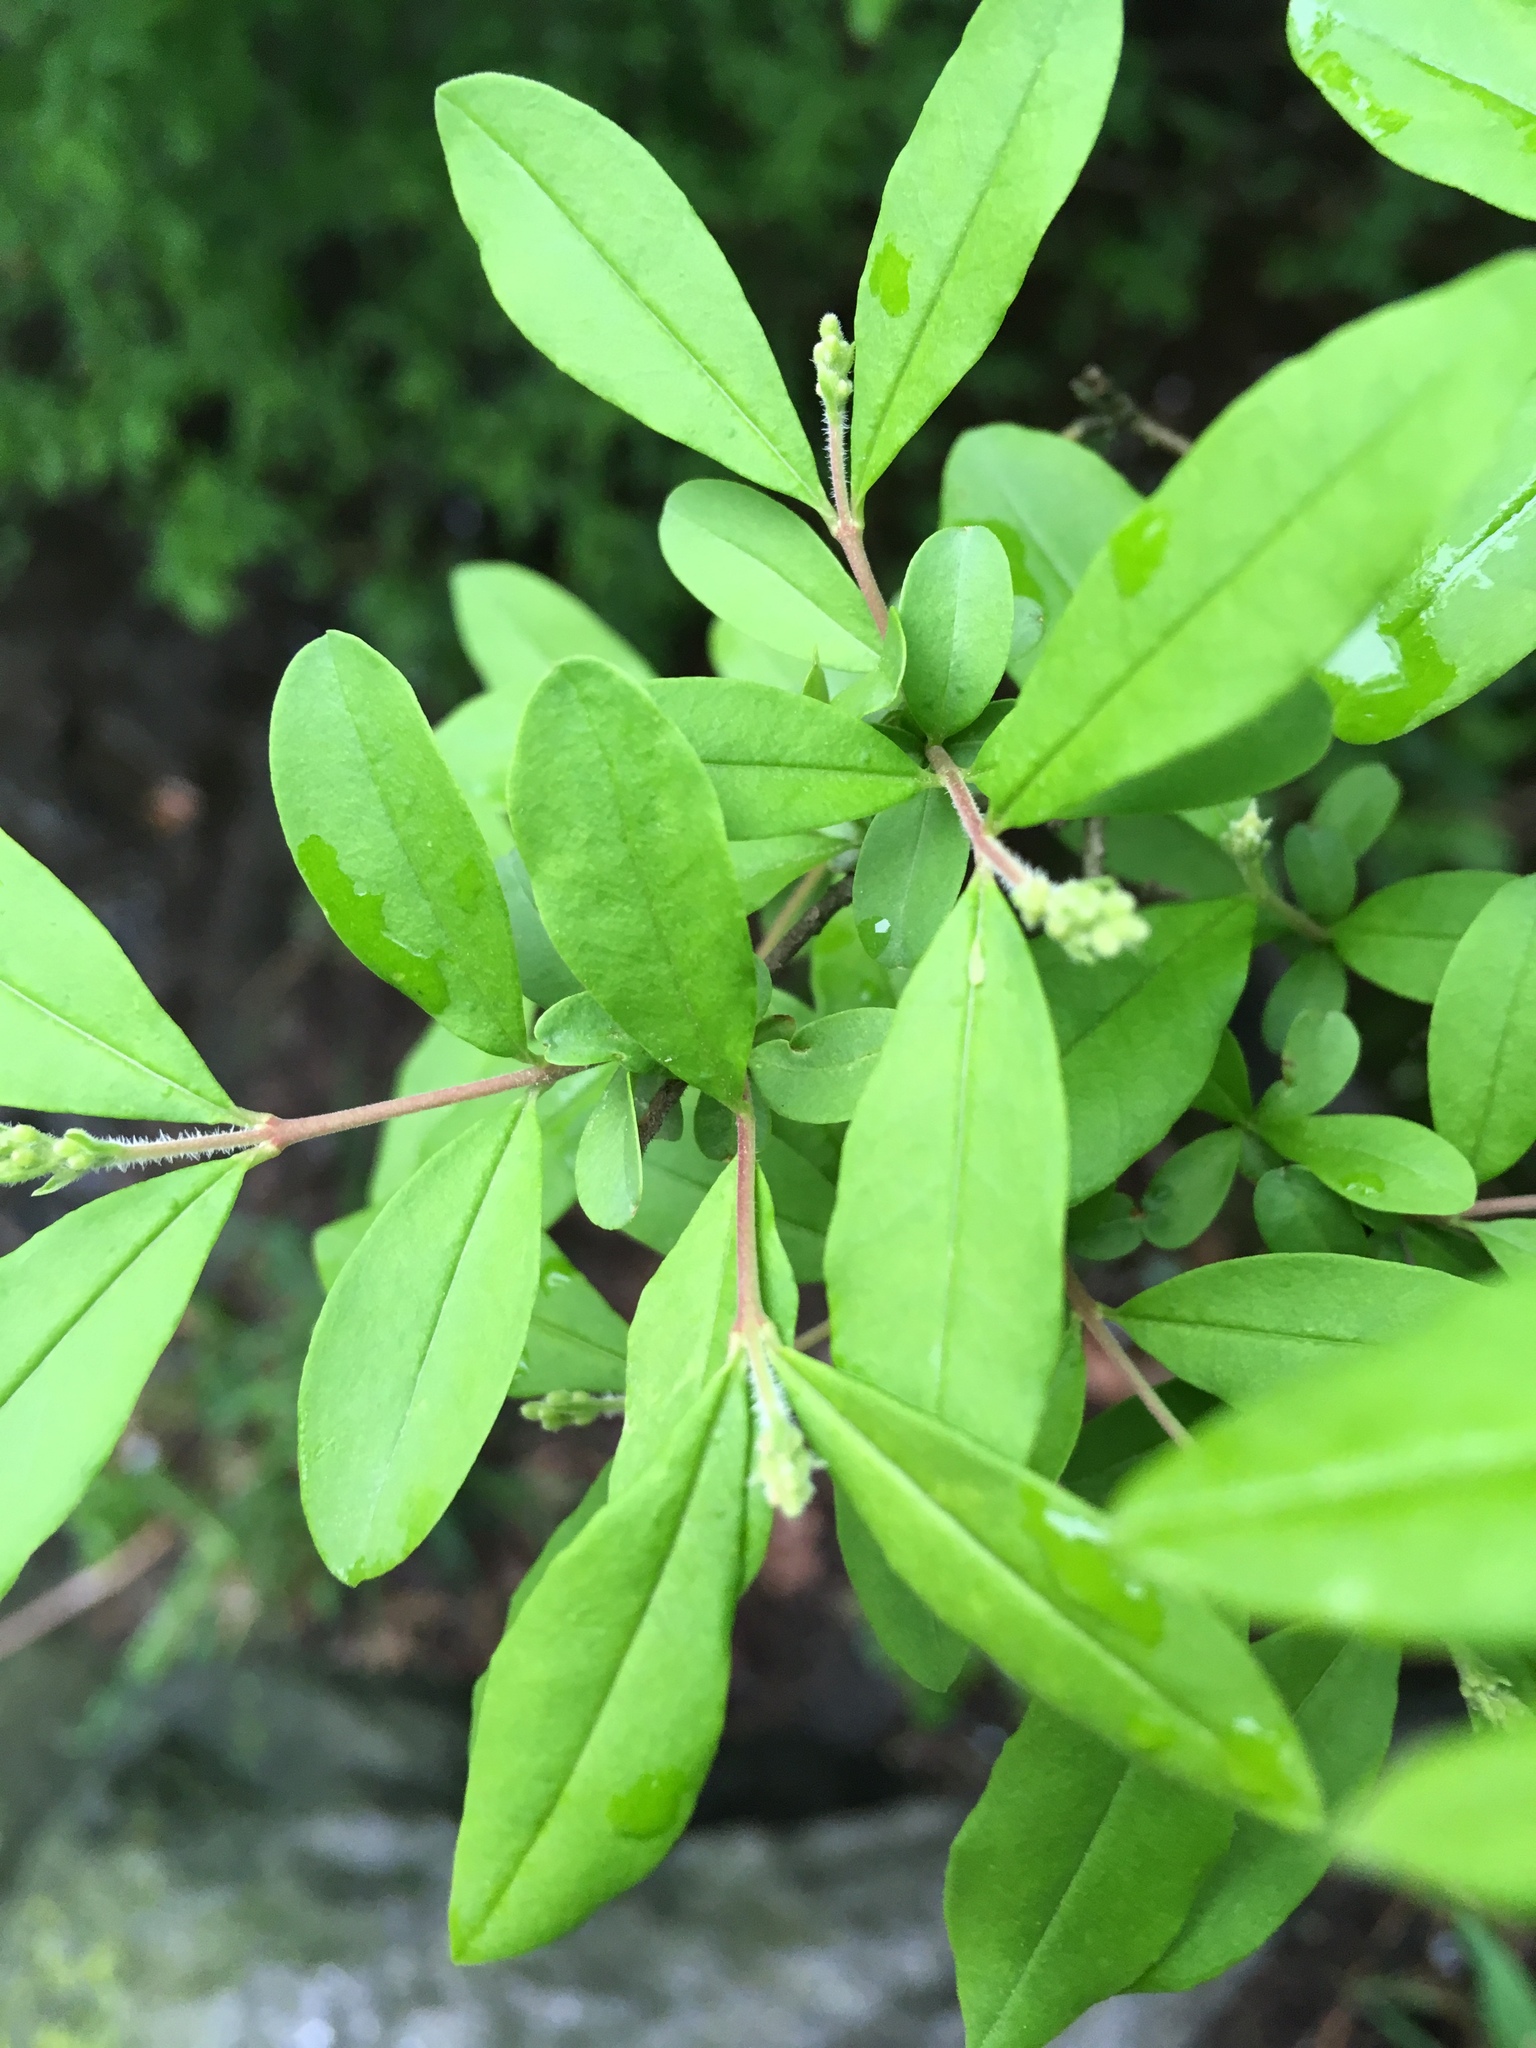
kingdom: Plantae
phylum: Tracheophyta
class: Magnoliopsida
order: Lamiales
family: Oleaceae
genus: Ligustrum
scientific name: Ligustrum obtusifolium
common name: Border privet
